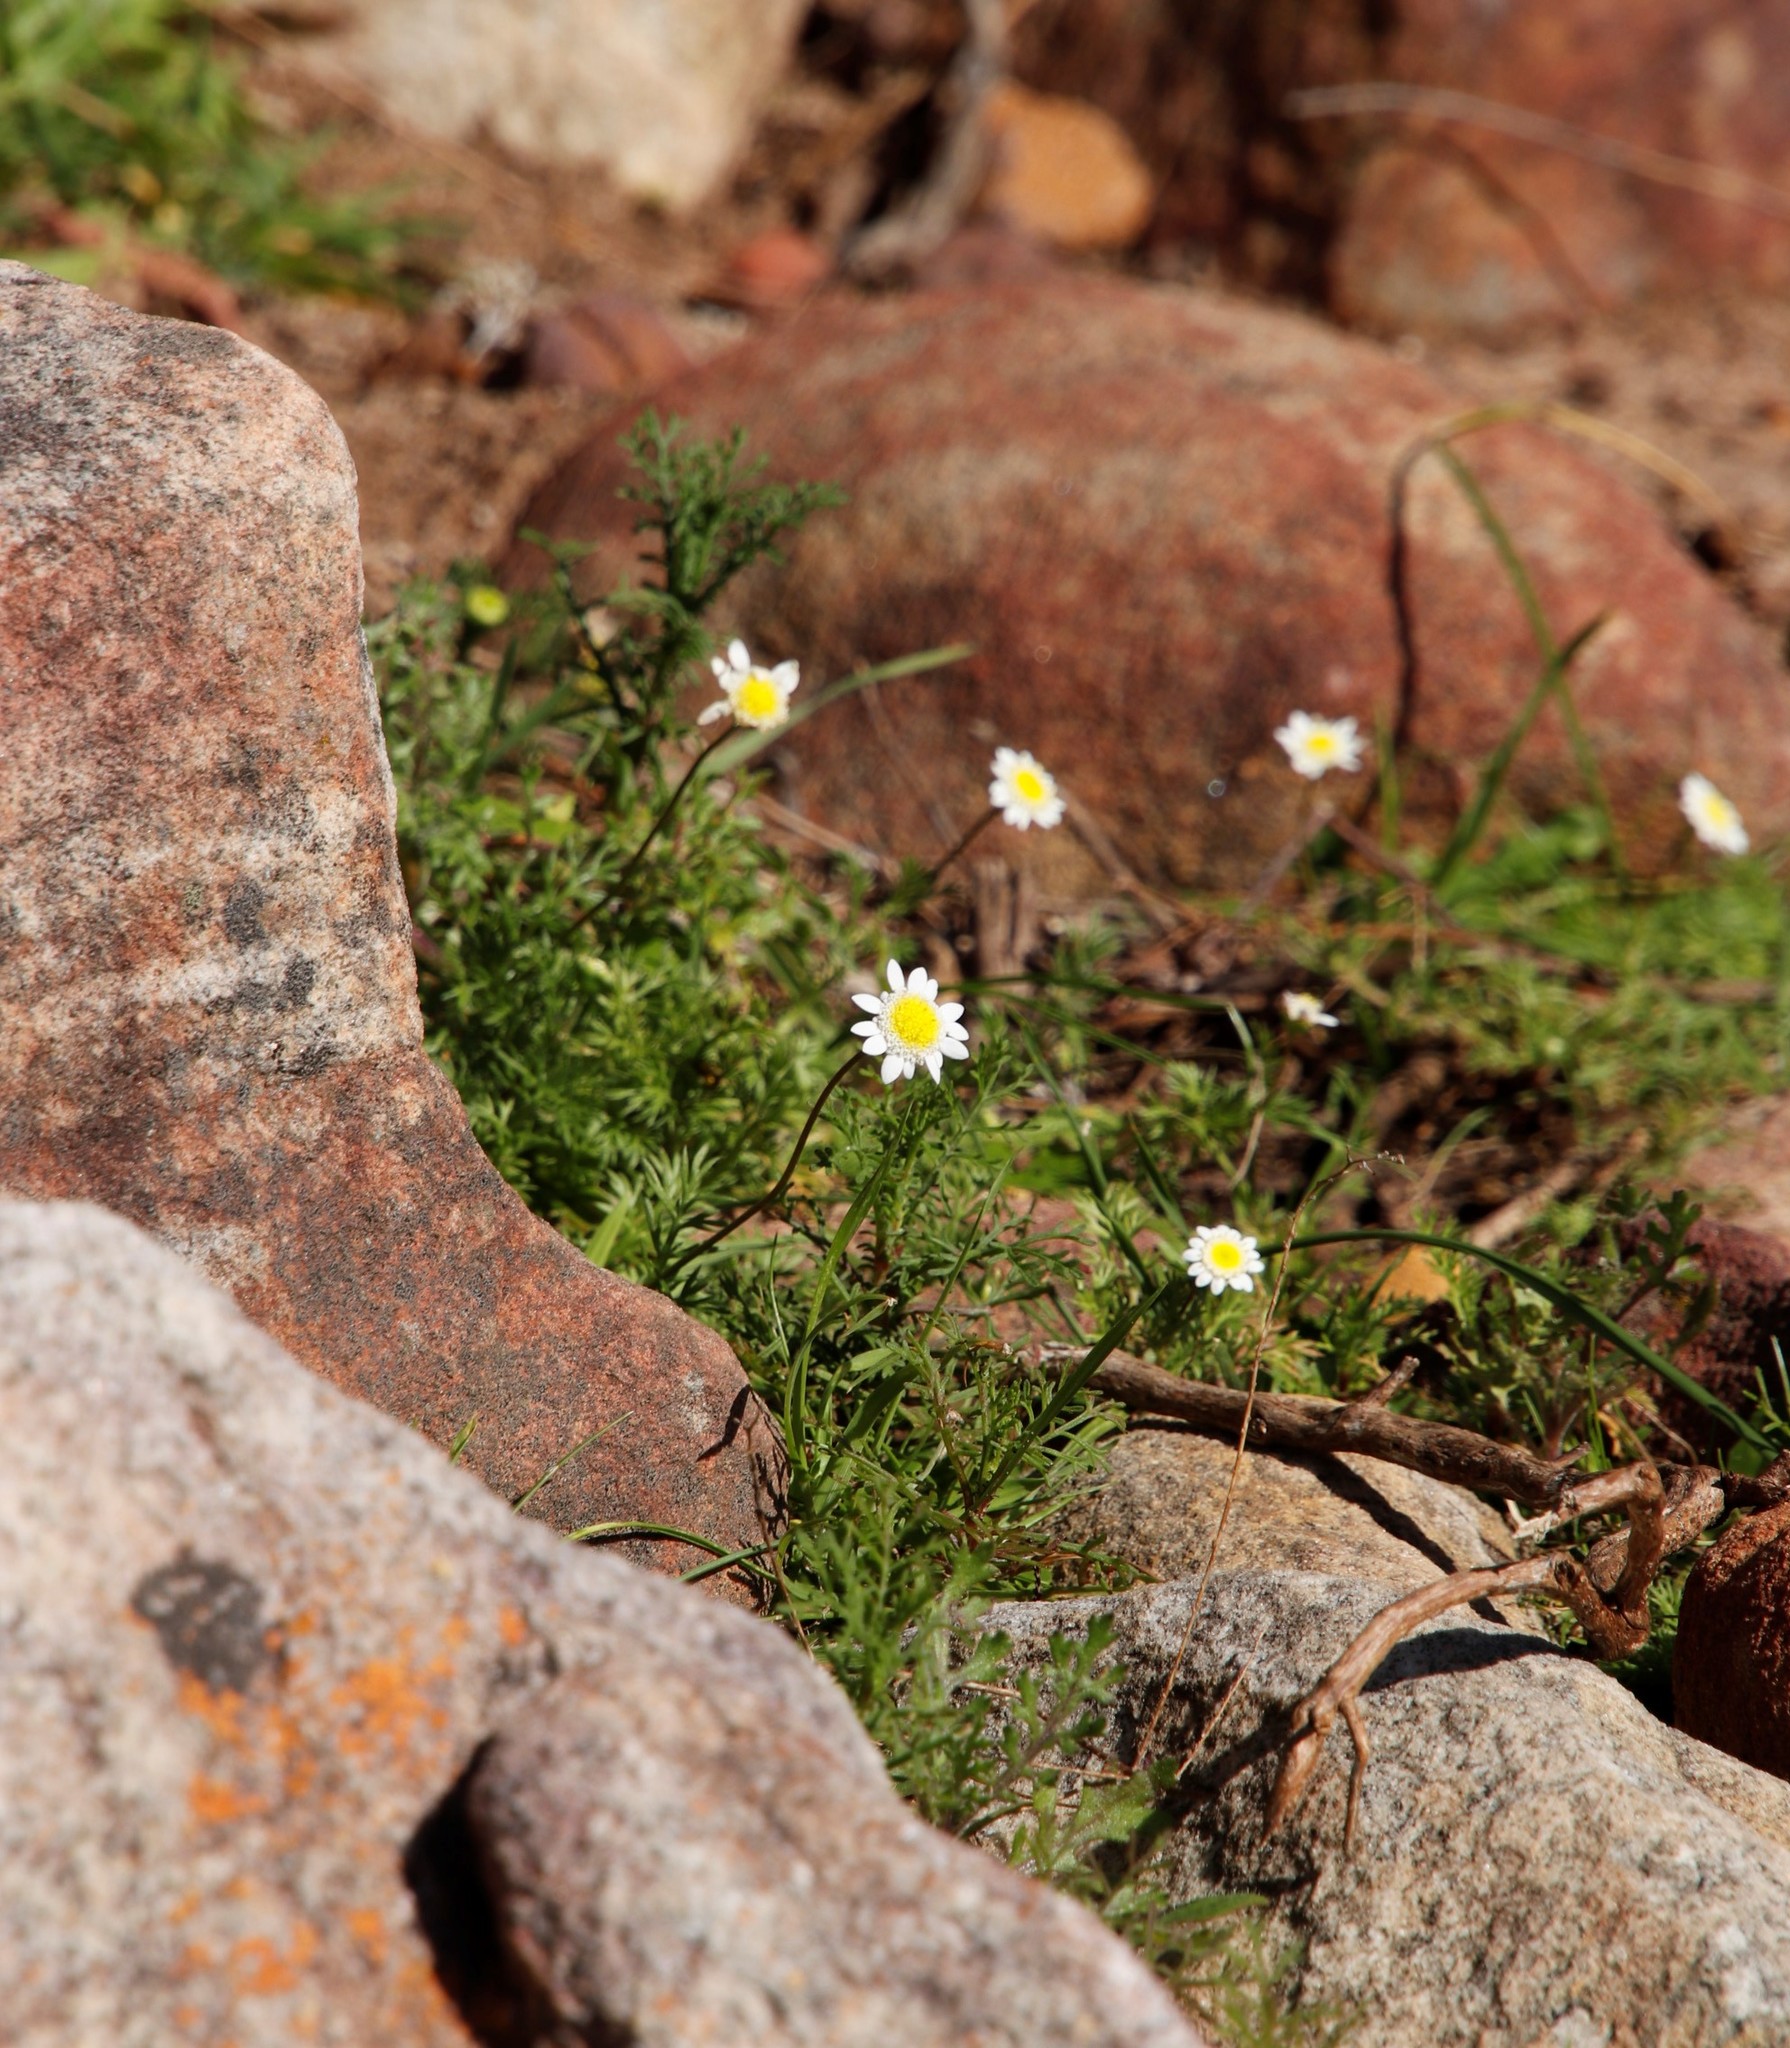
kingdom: Plantae
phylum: Tracheophyta
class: Magnoliopsida
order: Asterales
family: Asteraceae
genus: Cotula
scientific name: Cotula turbinata
